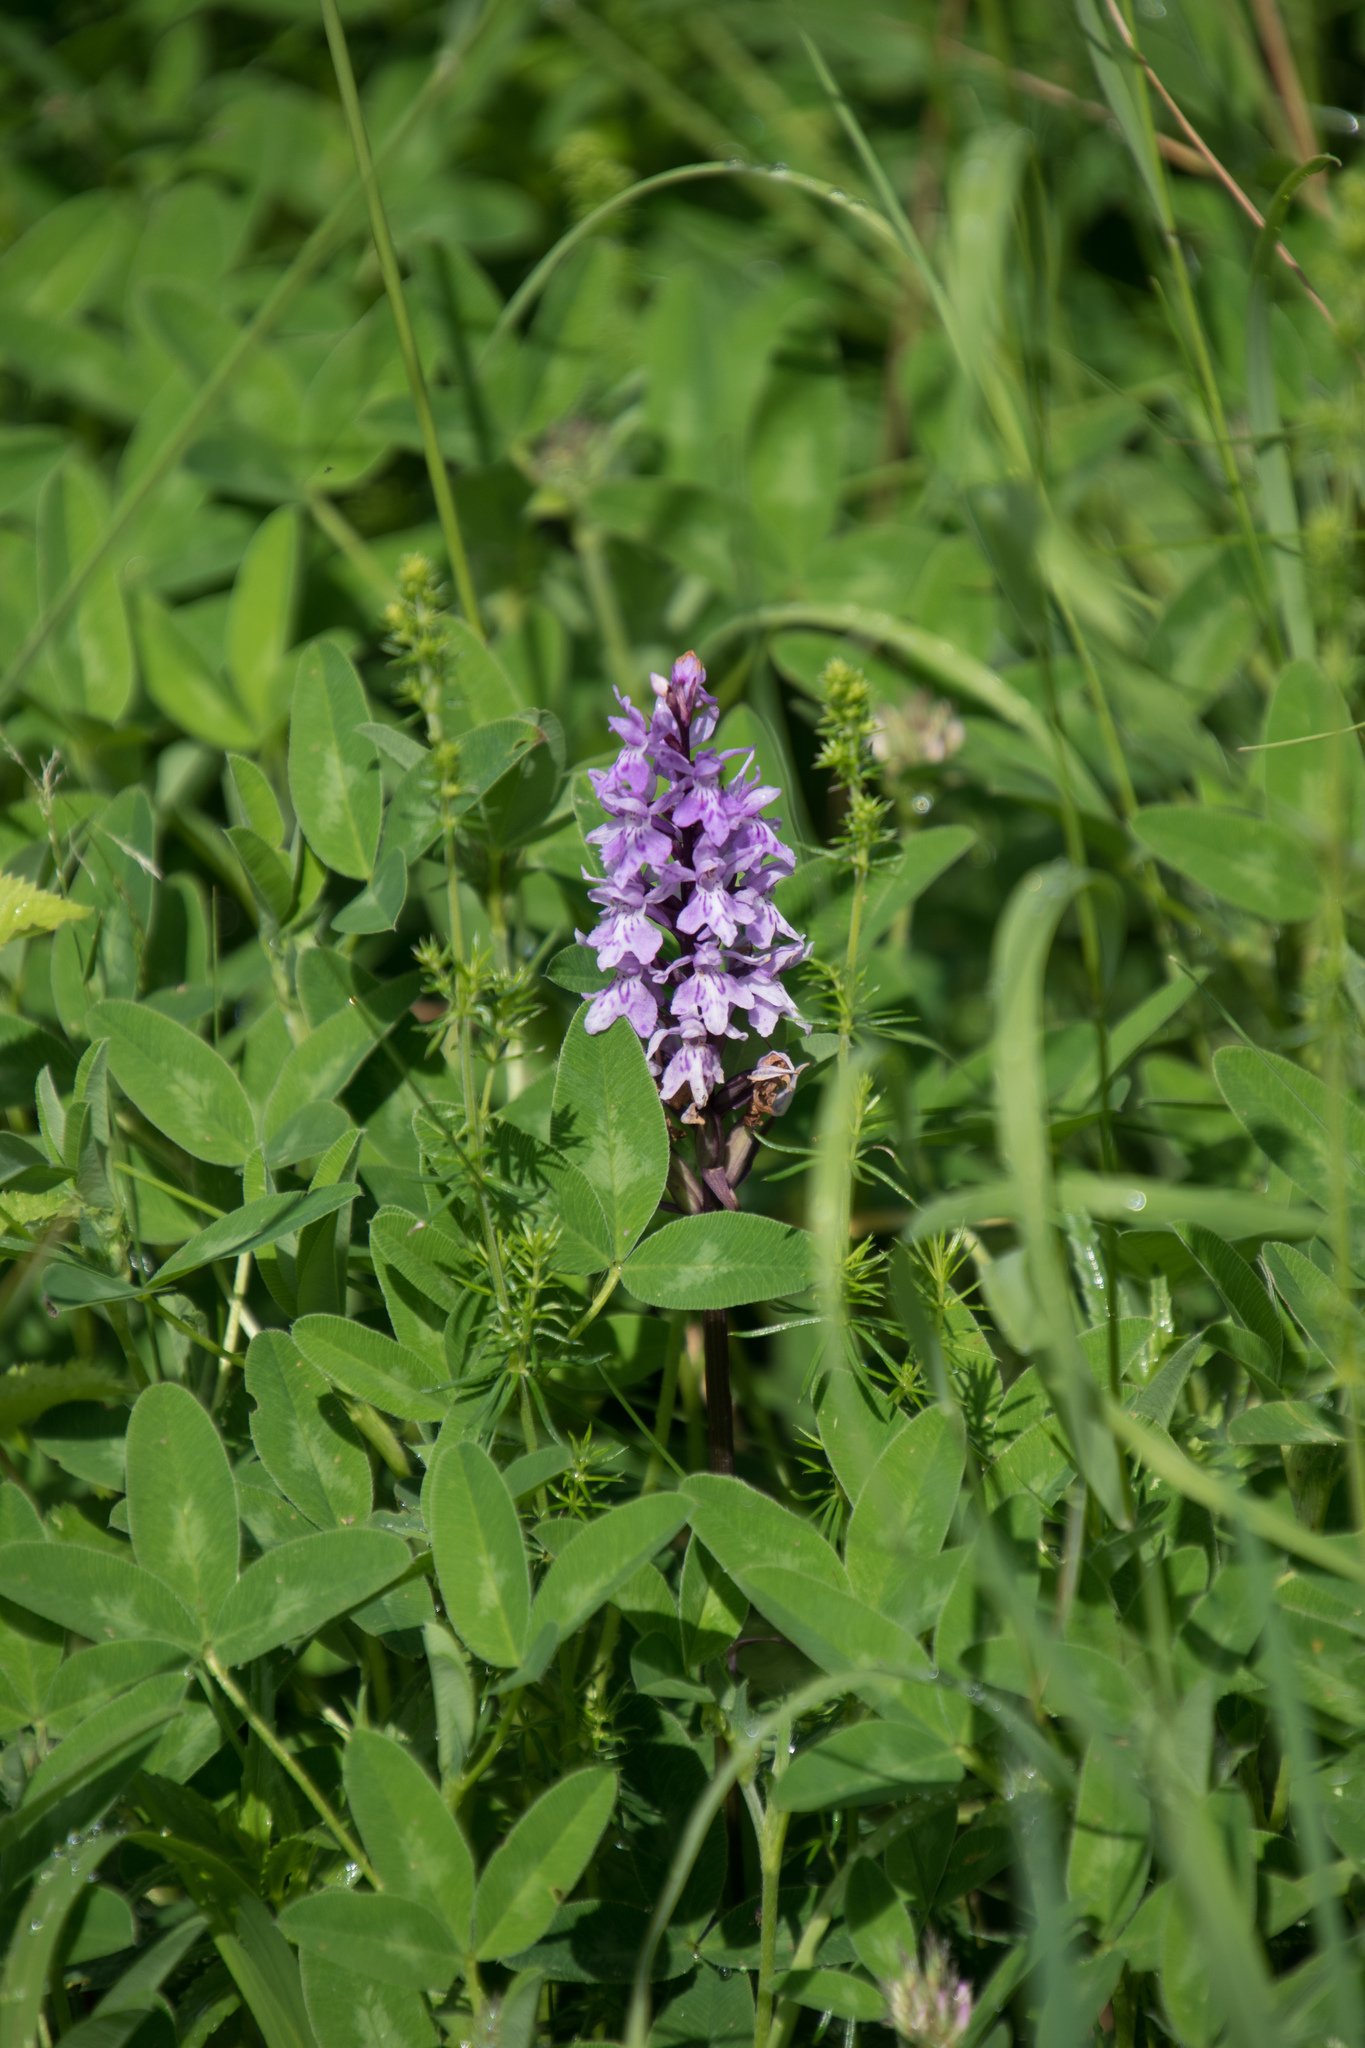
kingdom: Plantae
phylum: Tracheophyta
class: Liliopsida
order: Asparagales
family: Orchidaceae
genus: Dactylorhiza
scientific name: Dactylorhiza maculata
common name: Heath spotted-orchid
